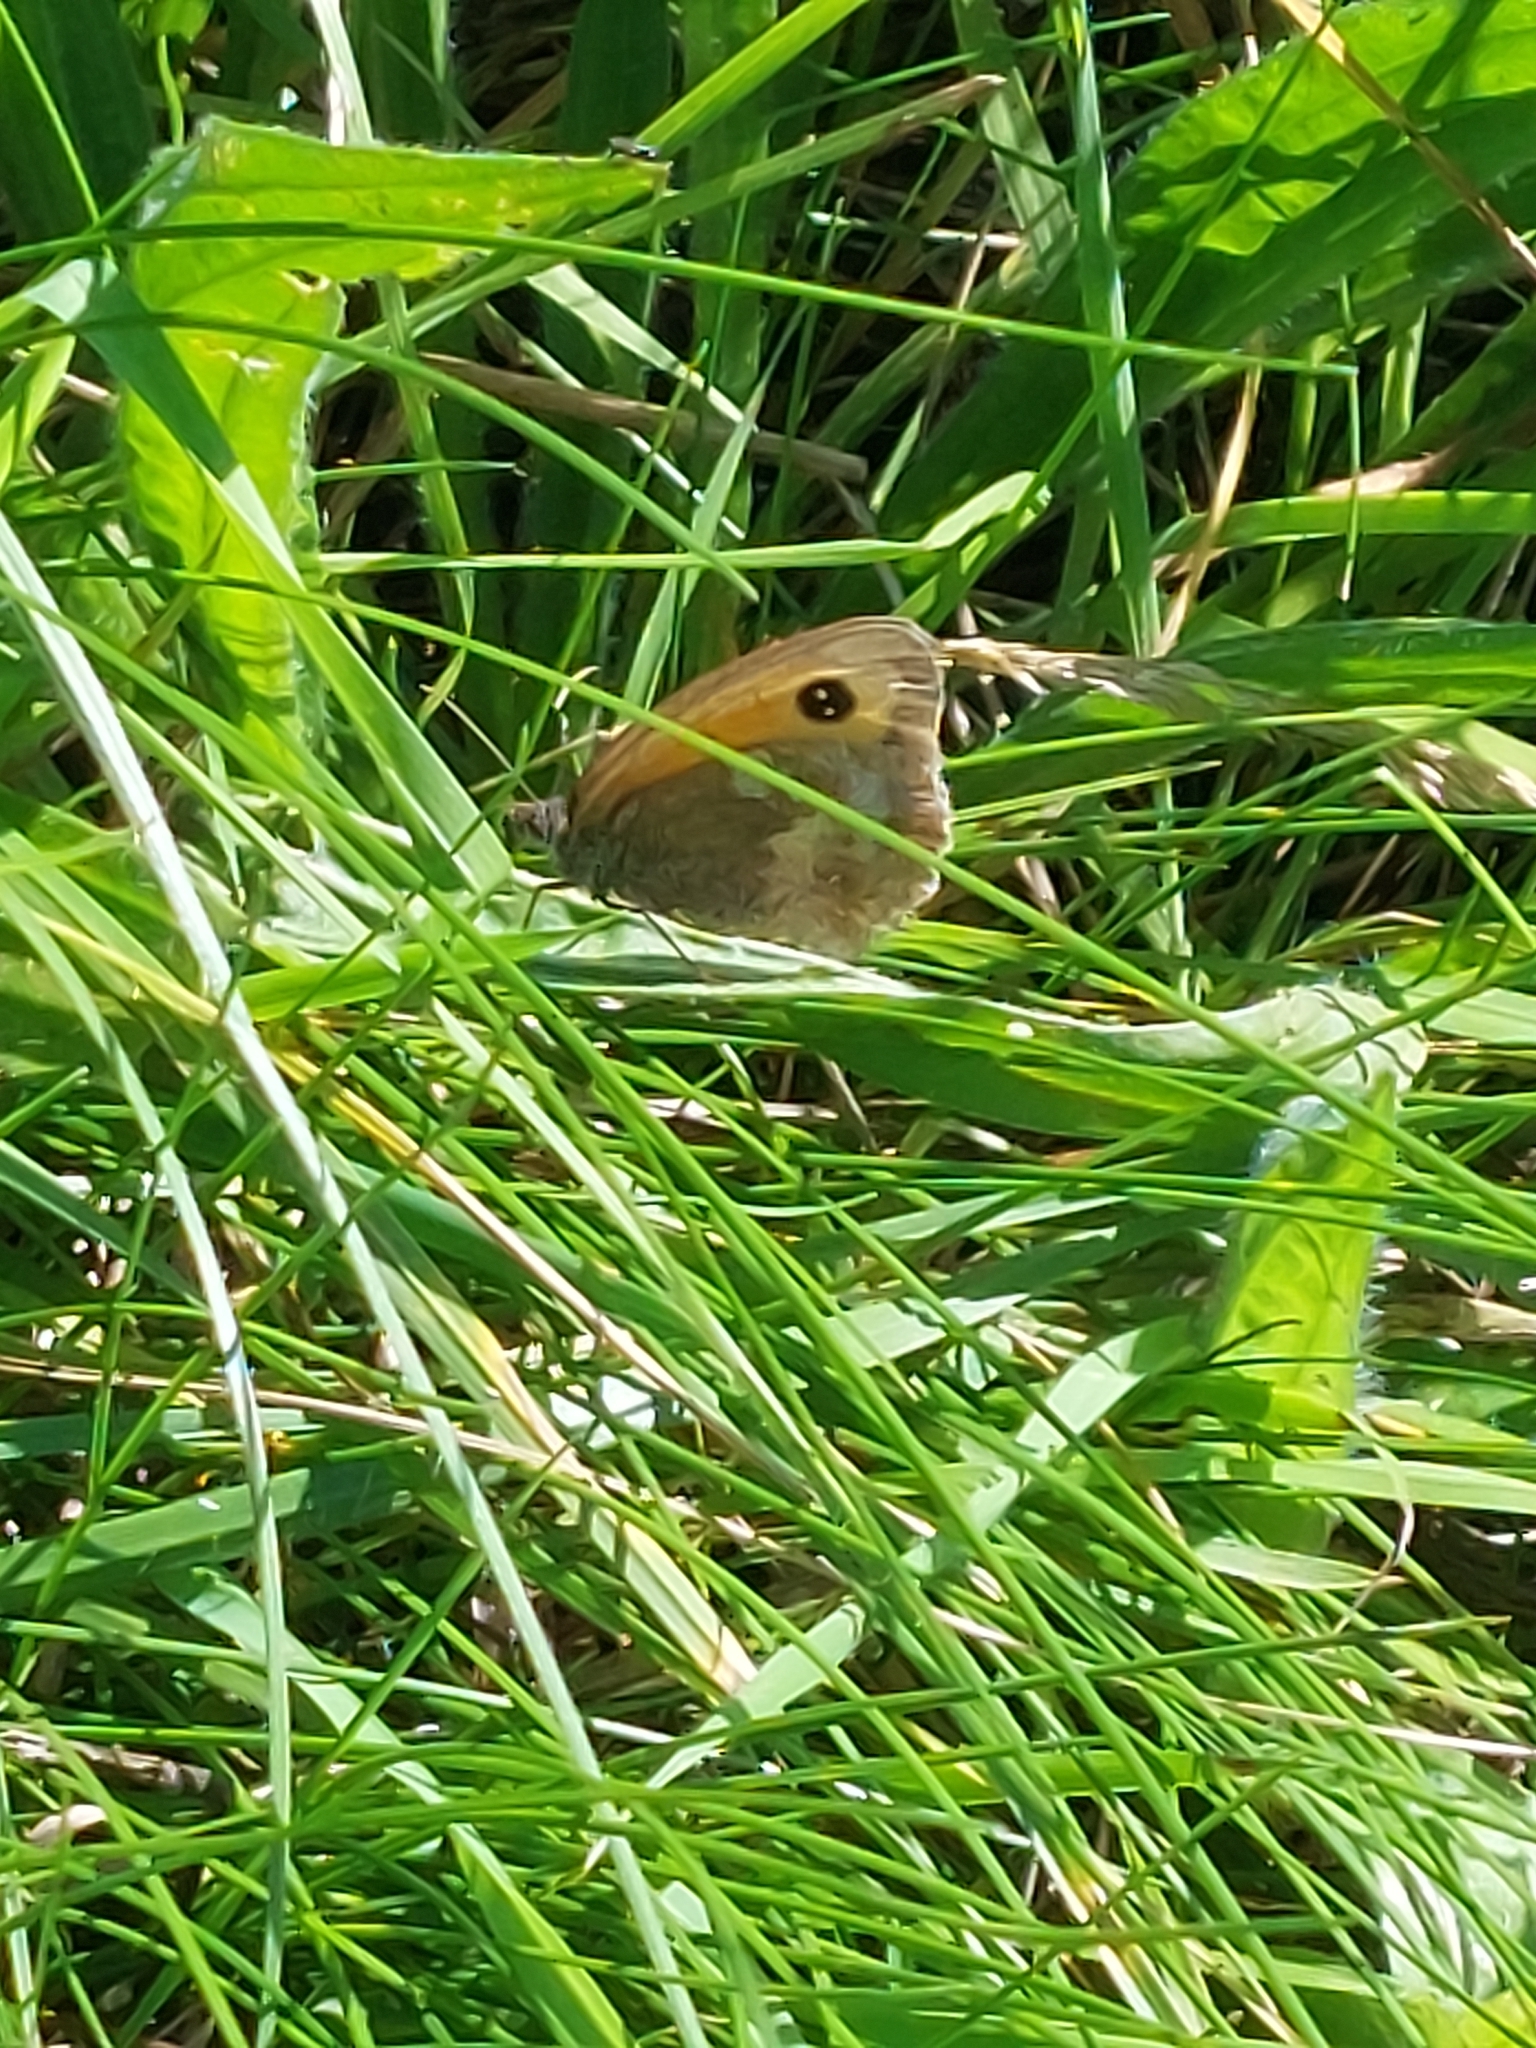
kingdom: Animalia
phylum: Arthropoda
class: Insecta
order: Lepidoptera
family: Nymphalidae
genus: Pyronia
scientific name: Pyronia tithonus
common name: Gatekeeper
